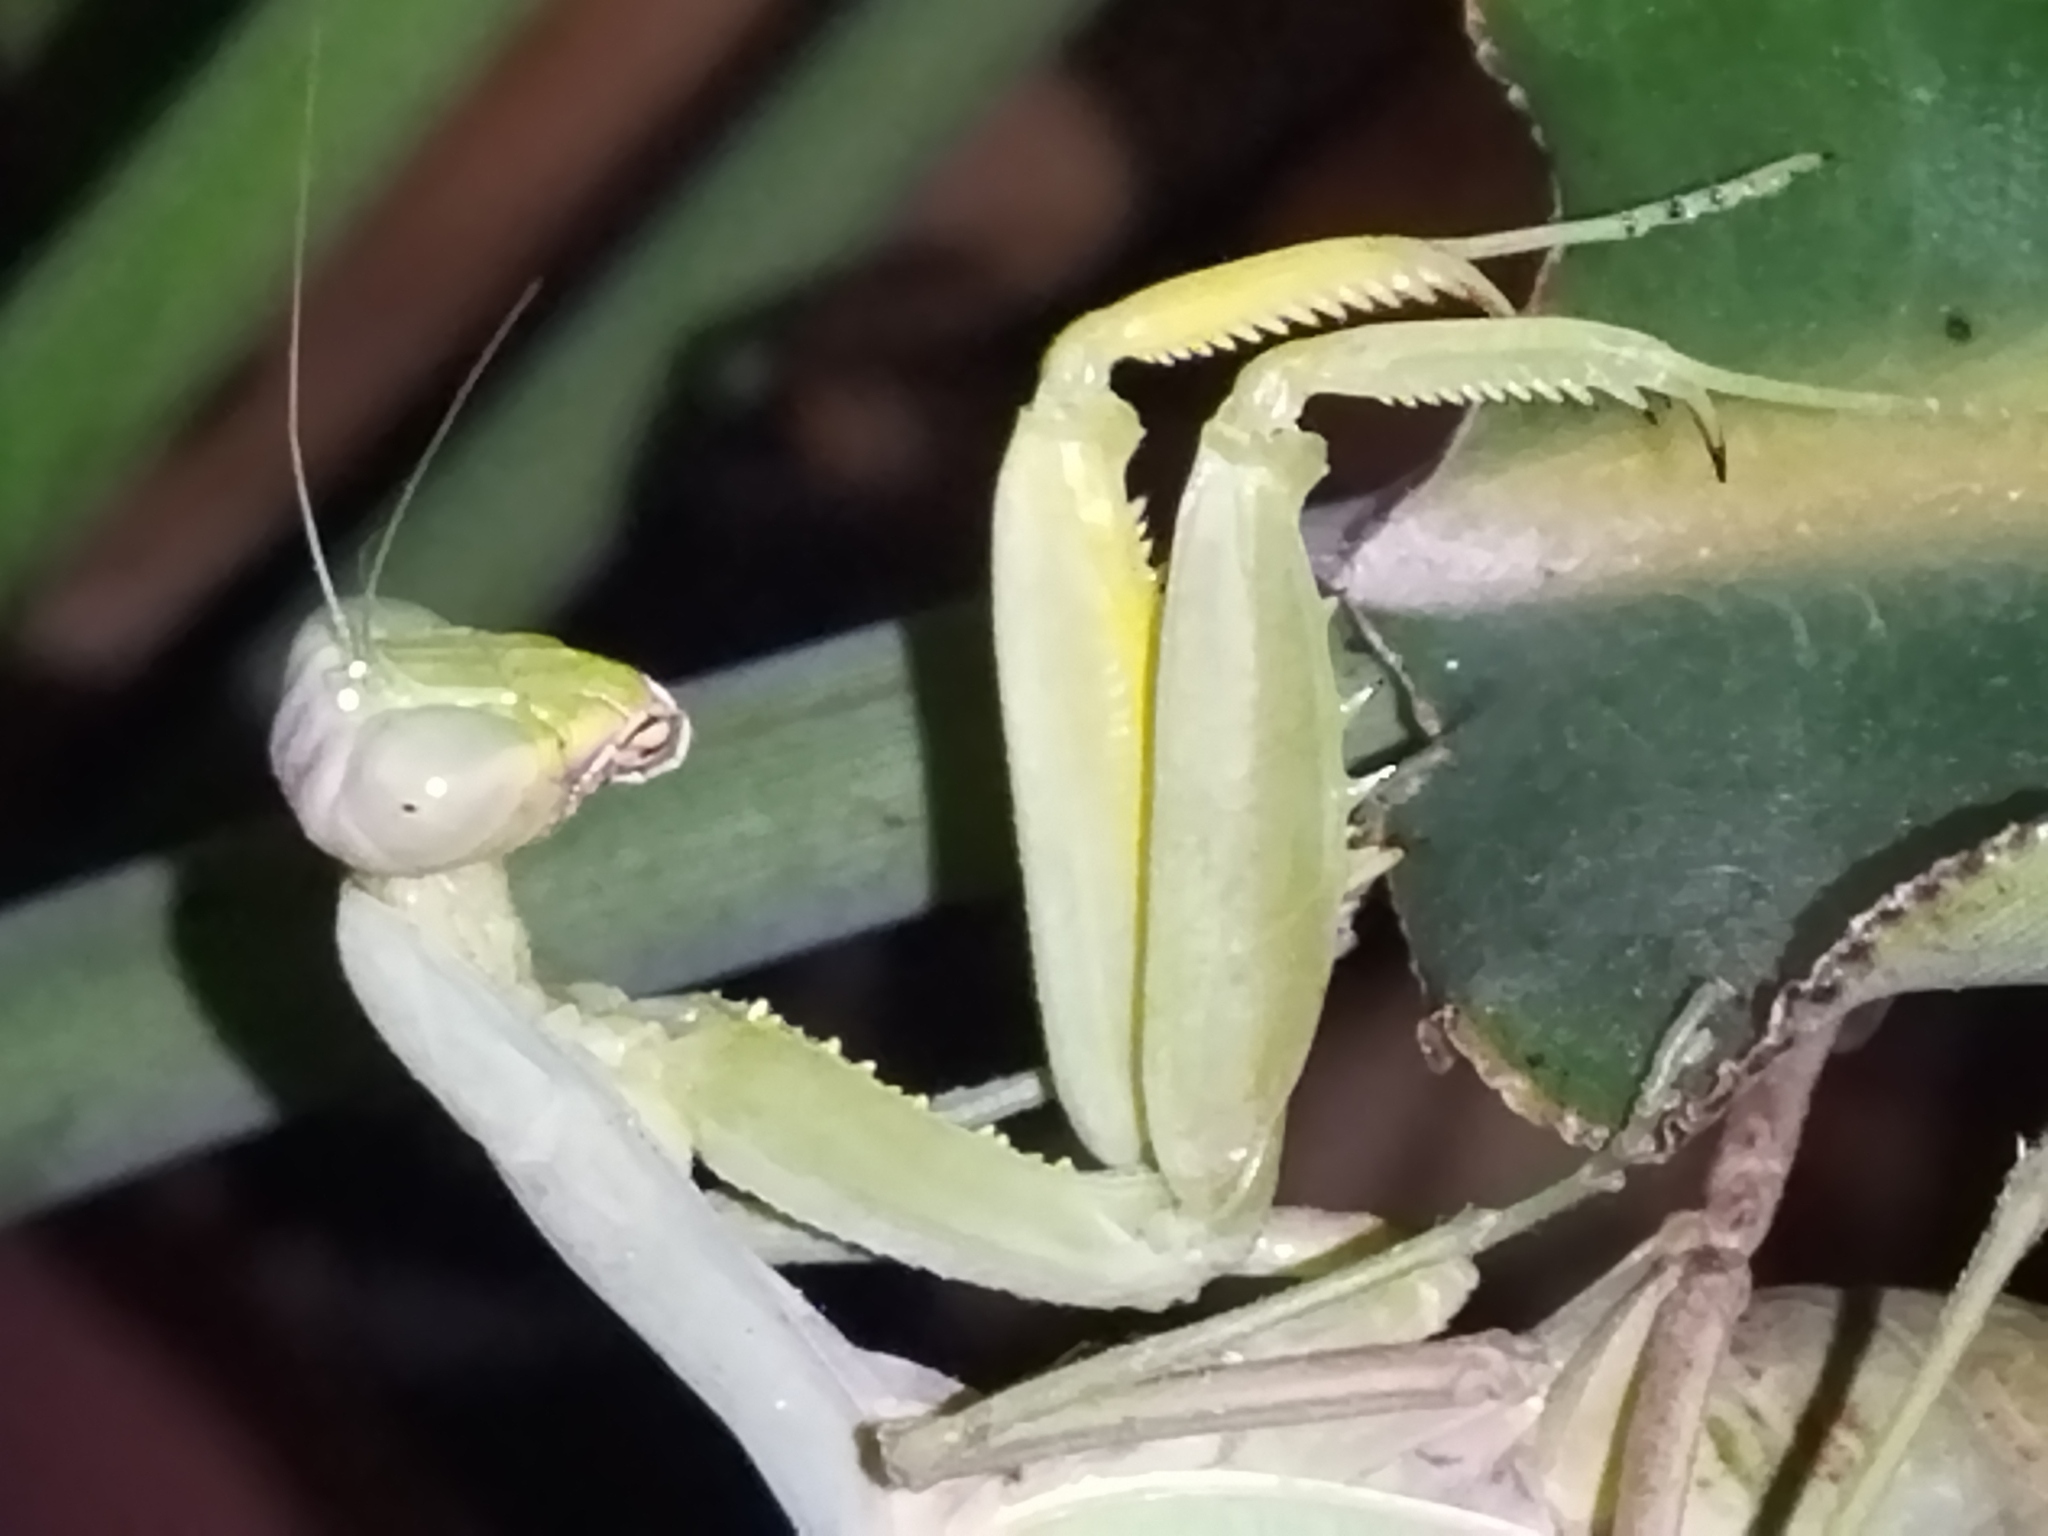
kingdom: Animalia
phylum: Arthropoda
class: Insecta
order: Mantodea
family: Mantidae
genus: Hierodula
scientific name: Hierodula transcaucasica
